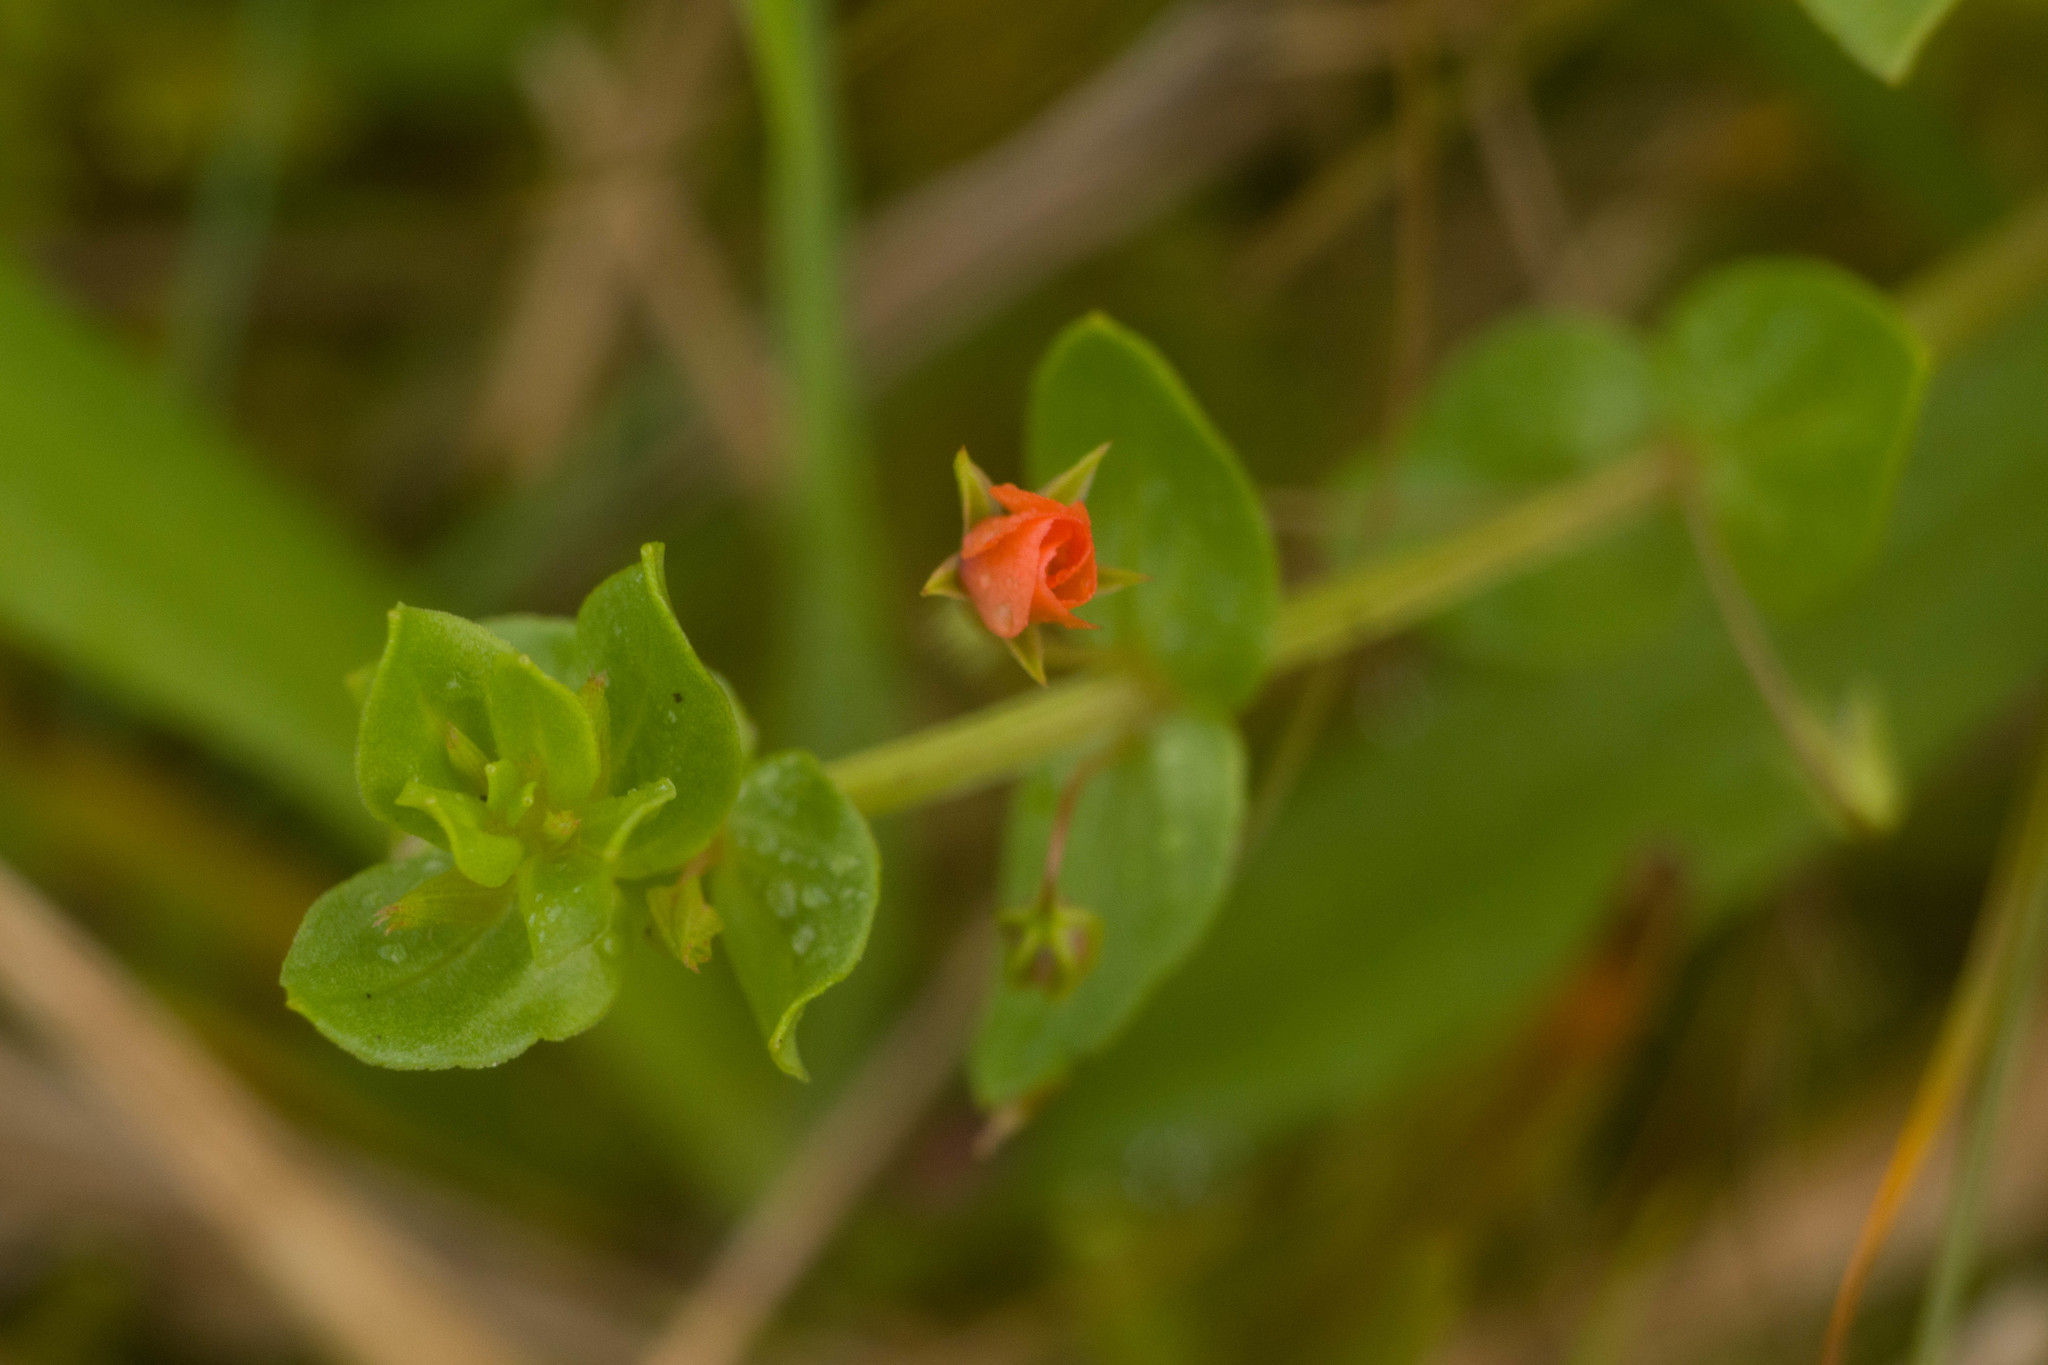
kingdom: Plantae
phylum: Tracheophyta
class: Magnoliopsida
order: Ericales
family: Primulaceae
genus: Lysimachia
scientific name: Lysimachia arvensis
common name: Scarlet pimpernel
